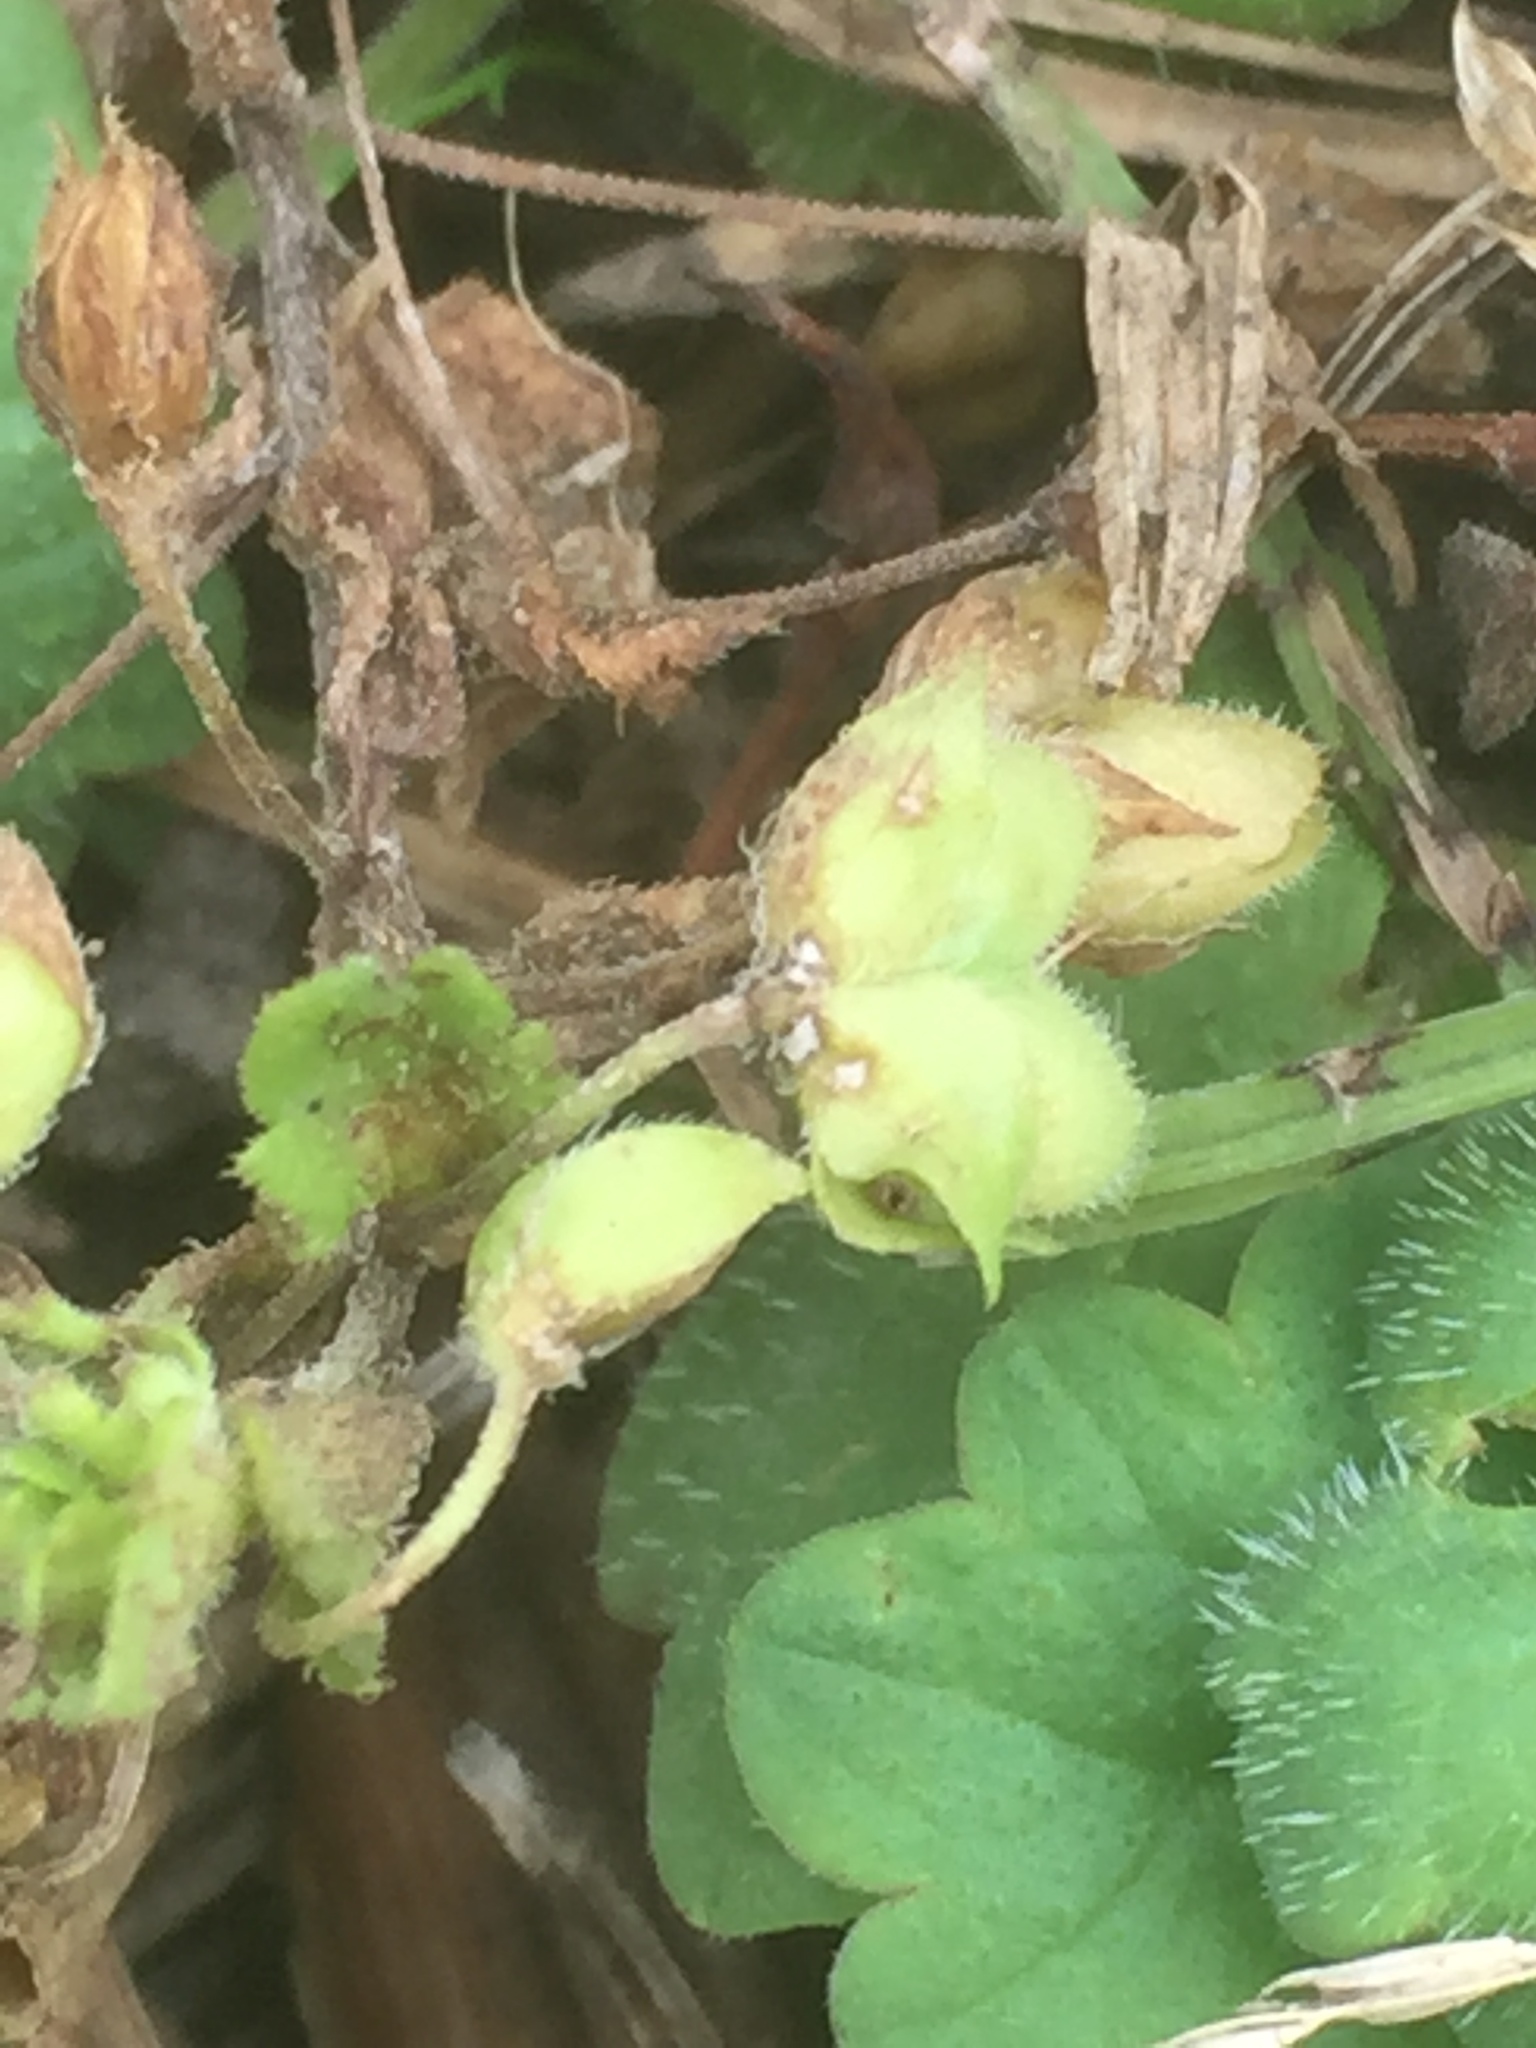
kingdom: Plantae
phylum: Tracheophyta
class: Magnoliopsida
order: Lamiales
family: Plantaginaceae
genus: Veronica
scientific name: Veronica persica
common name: Common field-speedwell
